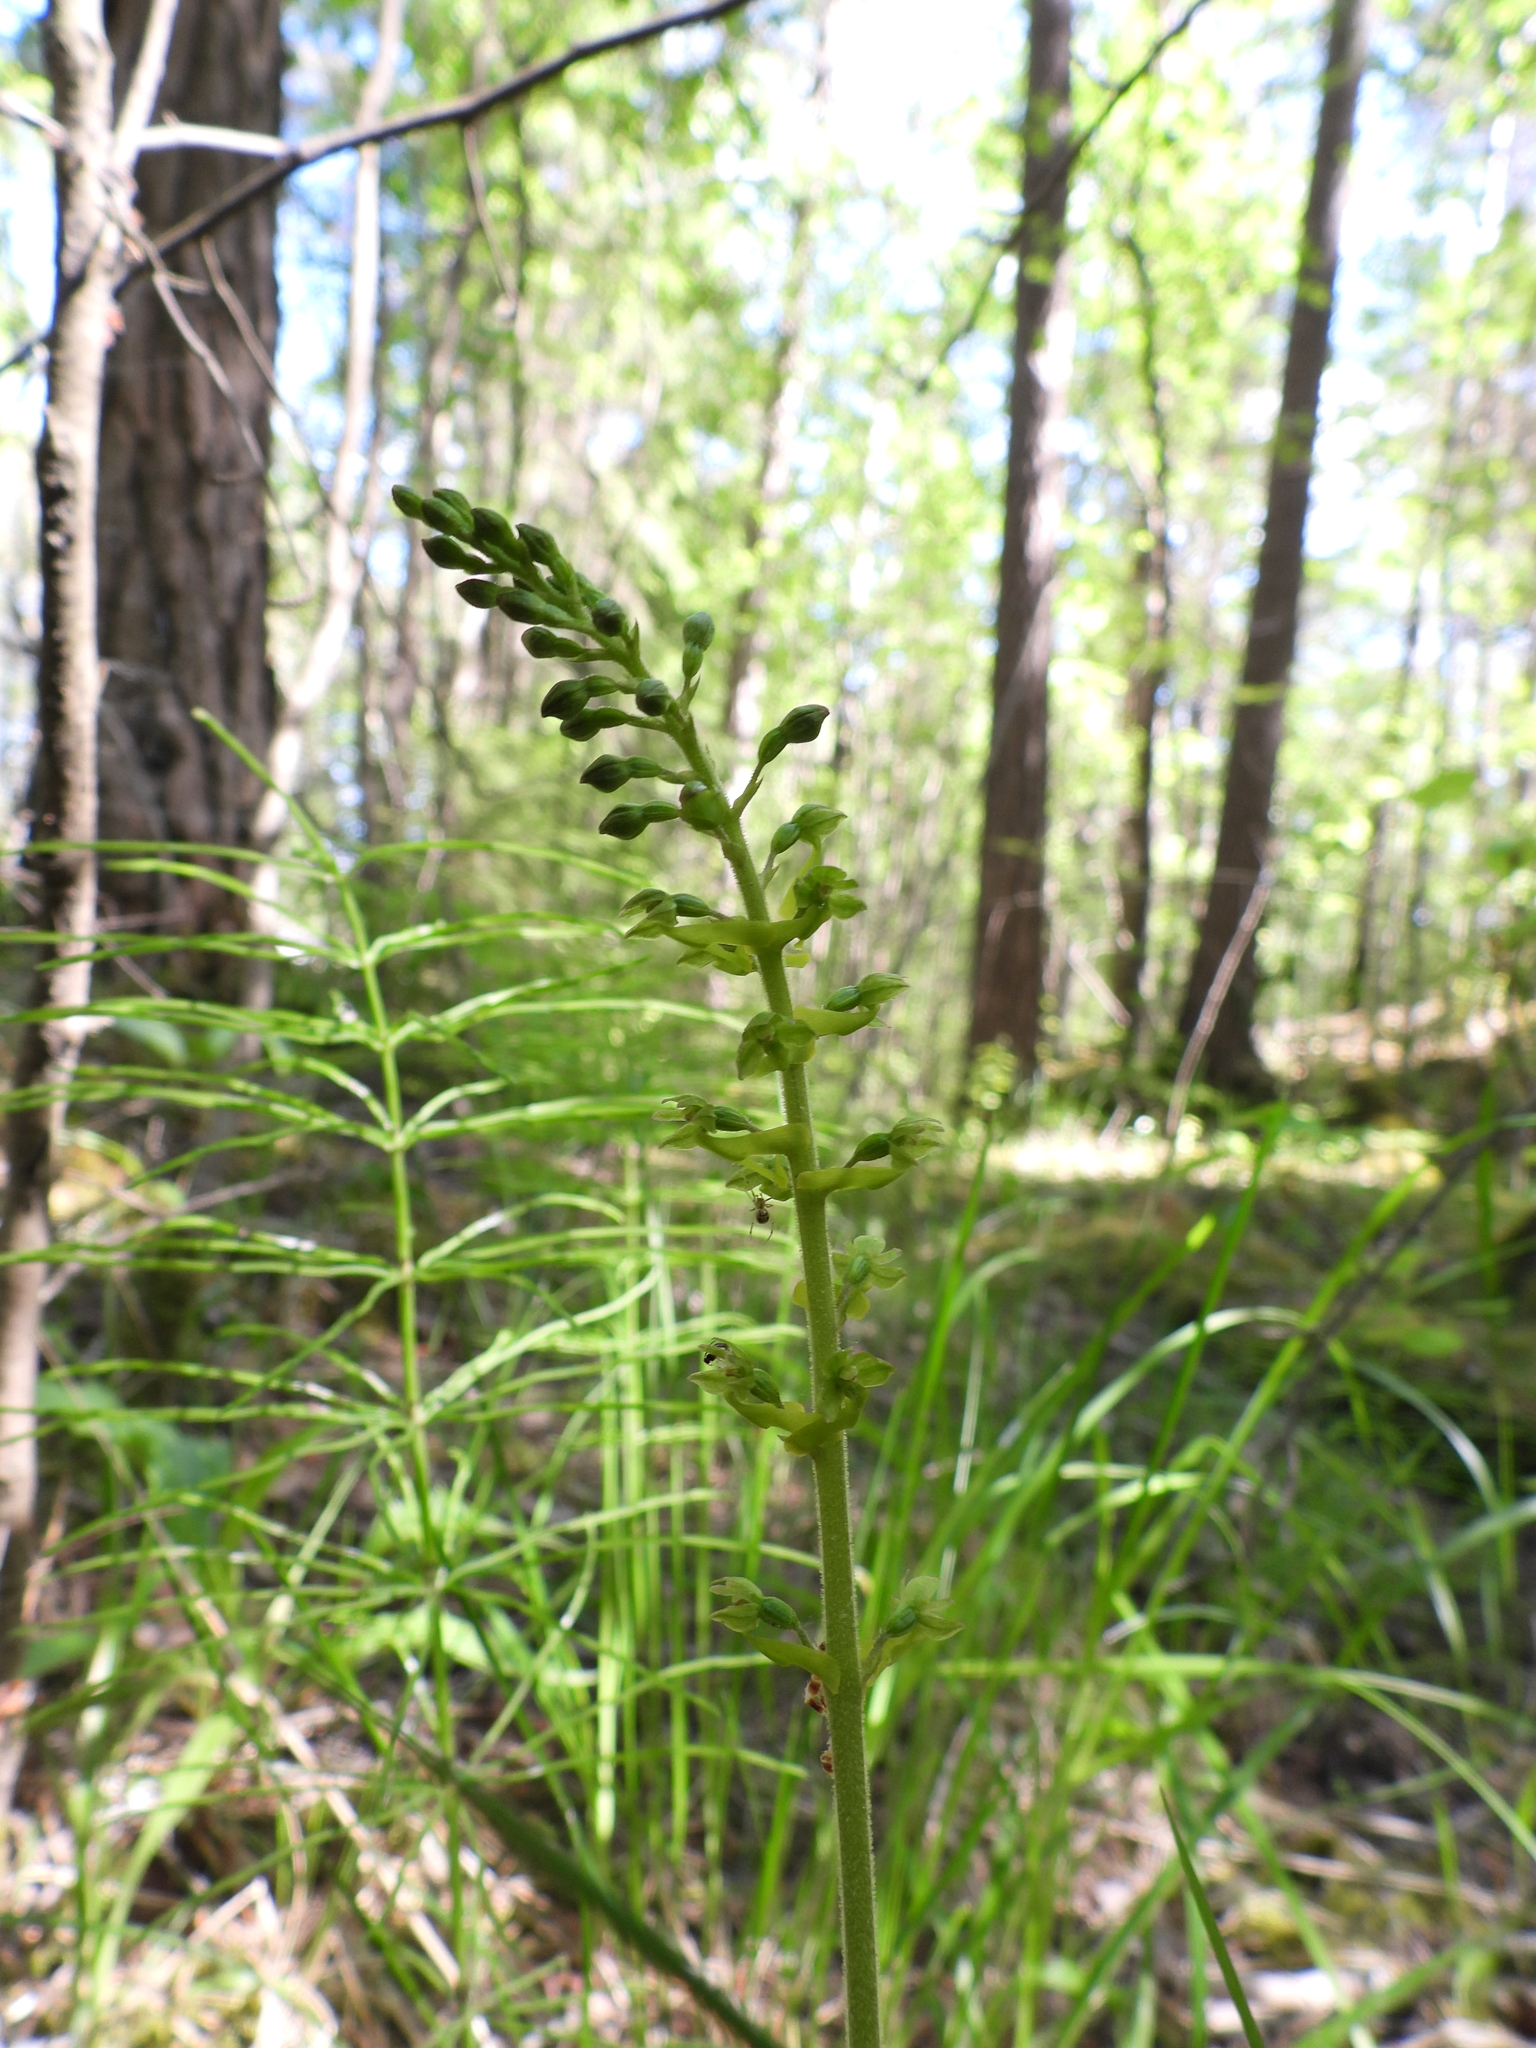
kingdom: Plantae
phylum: Tracheophyta
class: Liliopsida
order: Asparagales
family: Orchidaceae
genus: Neottia
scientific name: Neottia ovata
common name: Common twayblade
